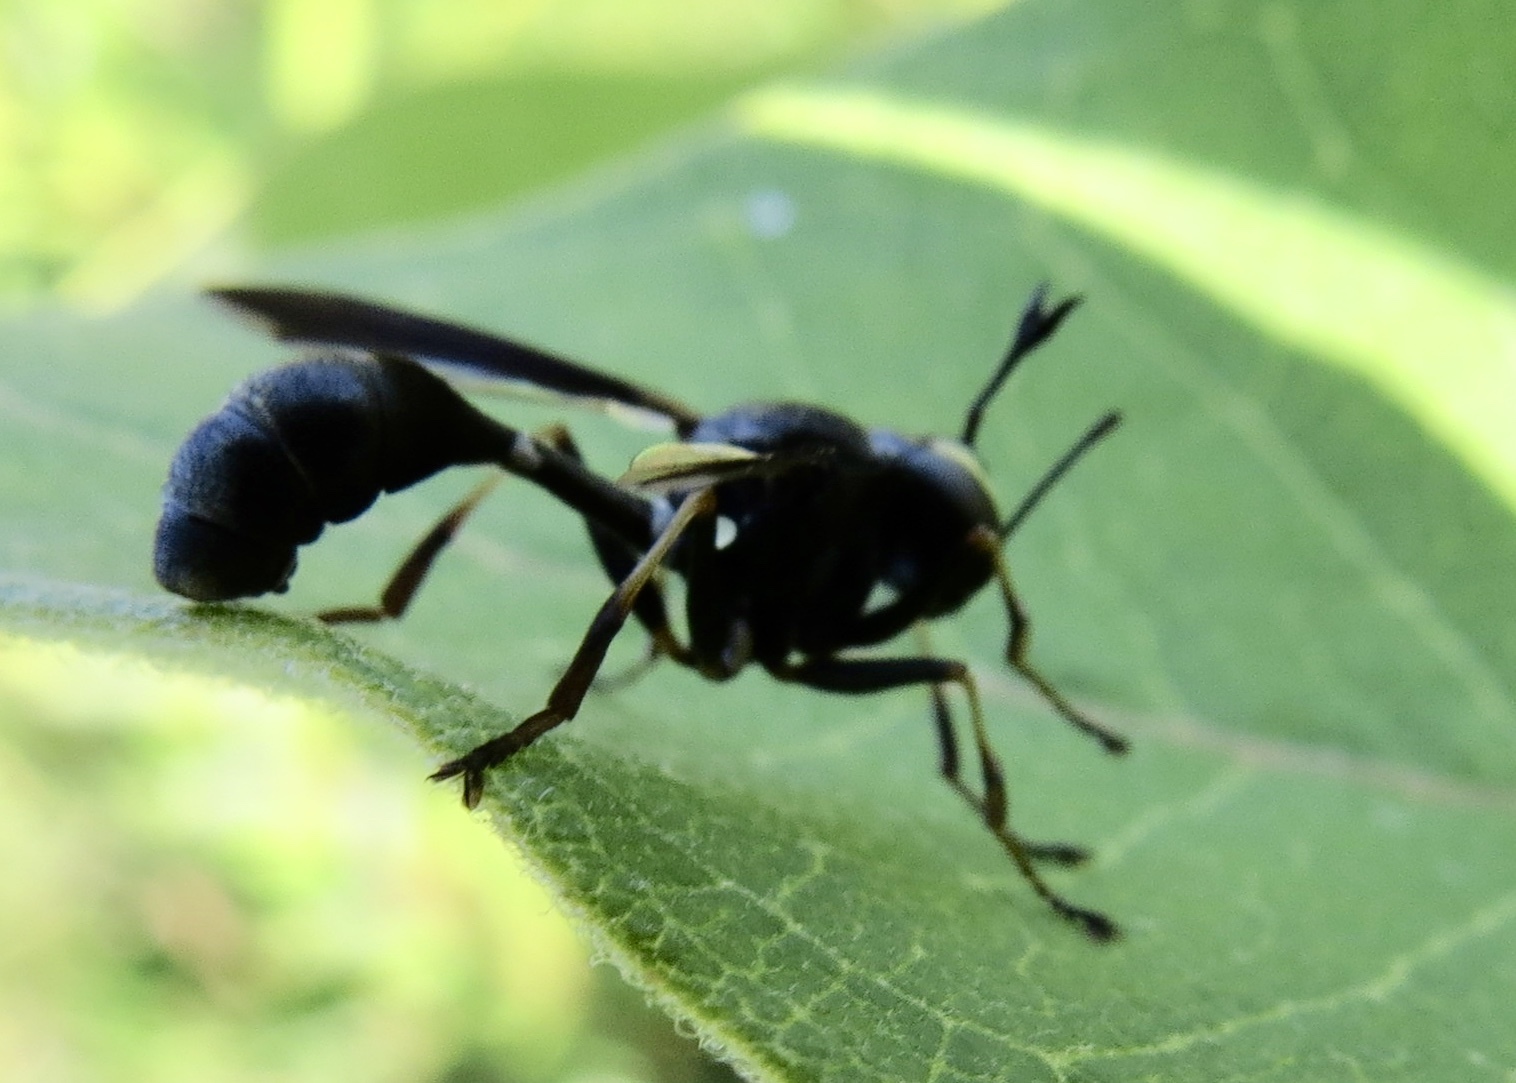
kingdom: Animalia
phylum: Arthropoda
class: Insecta
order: Diptera
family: Conopidae
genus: Physocephala
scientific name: Physocephala tibialis
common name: Common eastern physocephala
